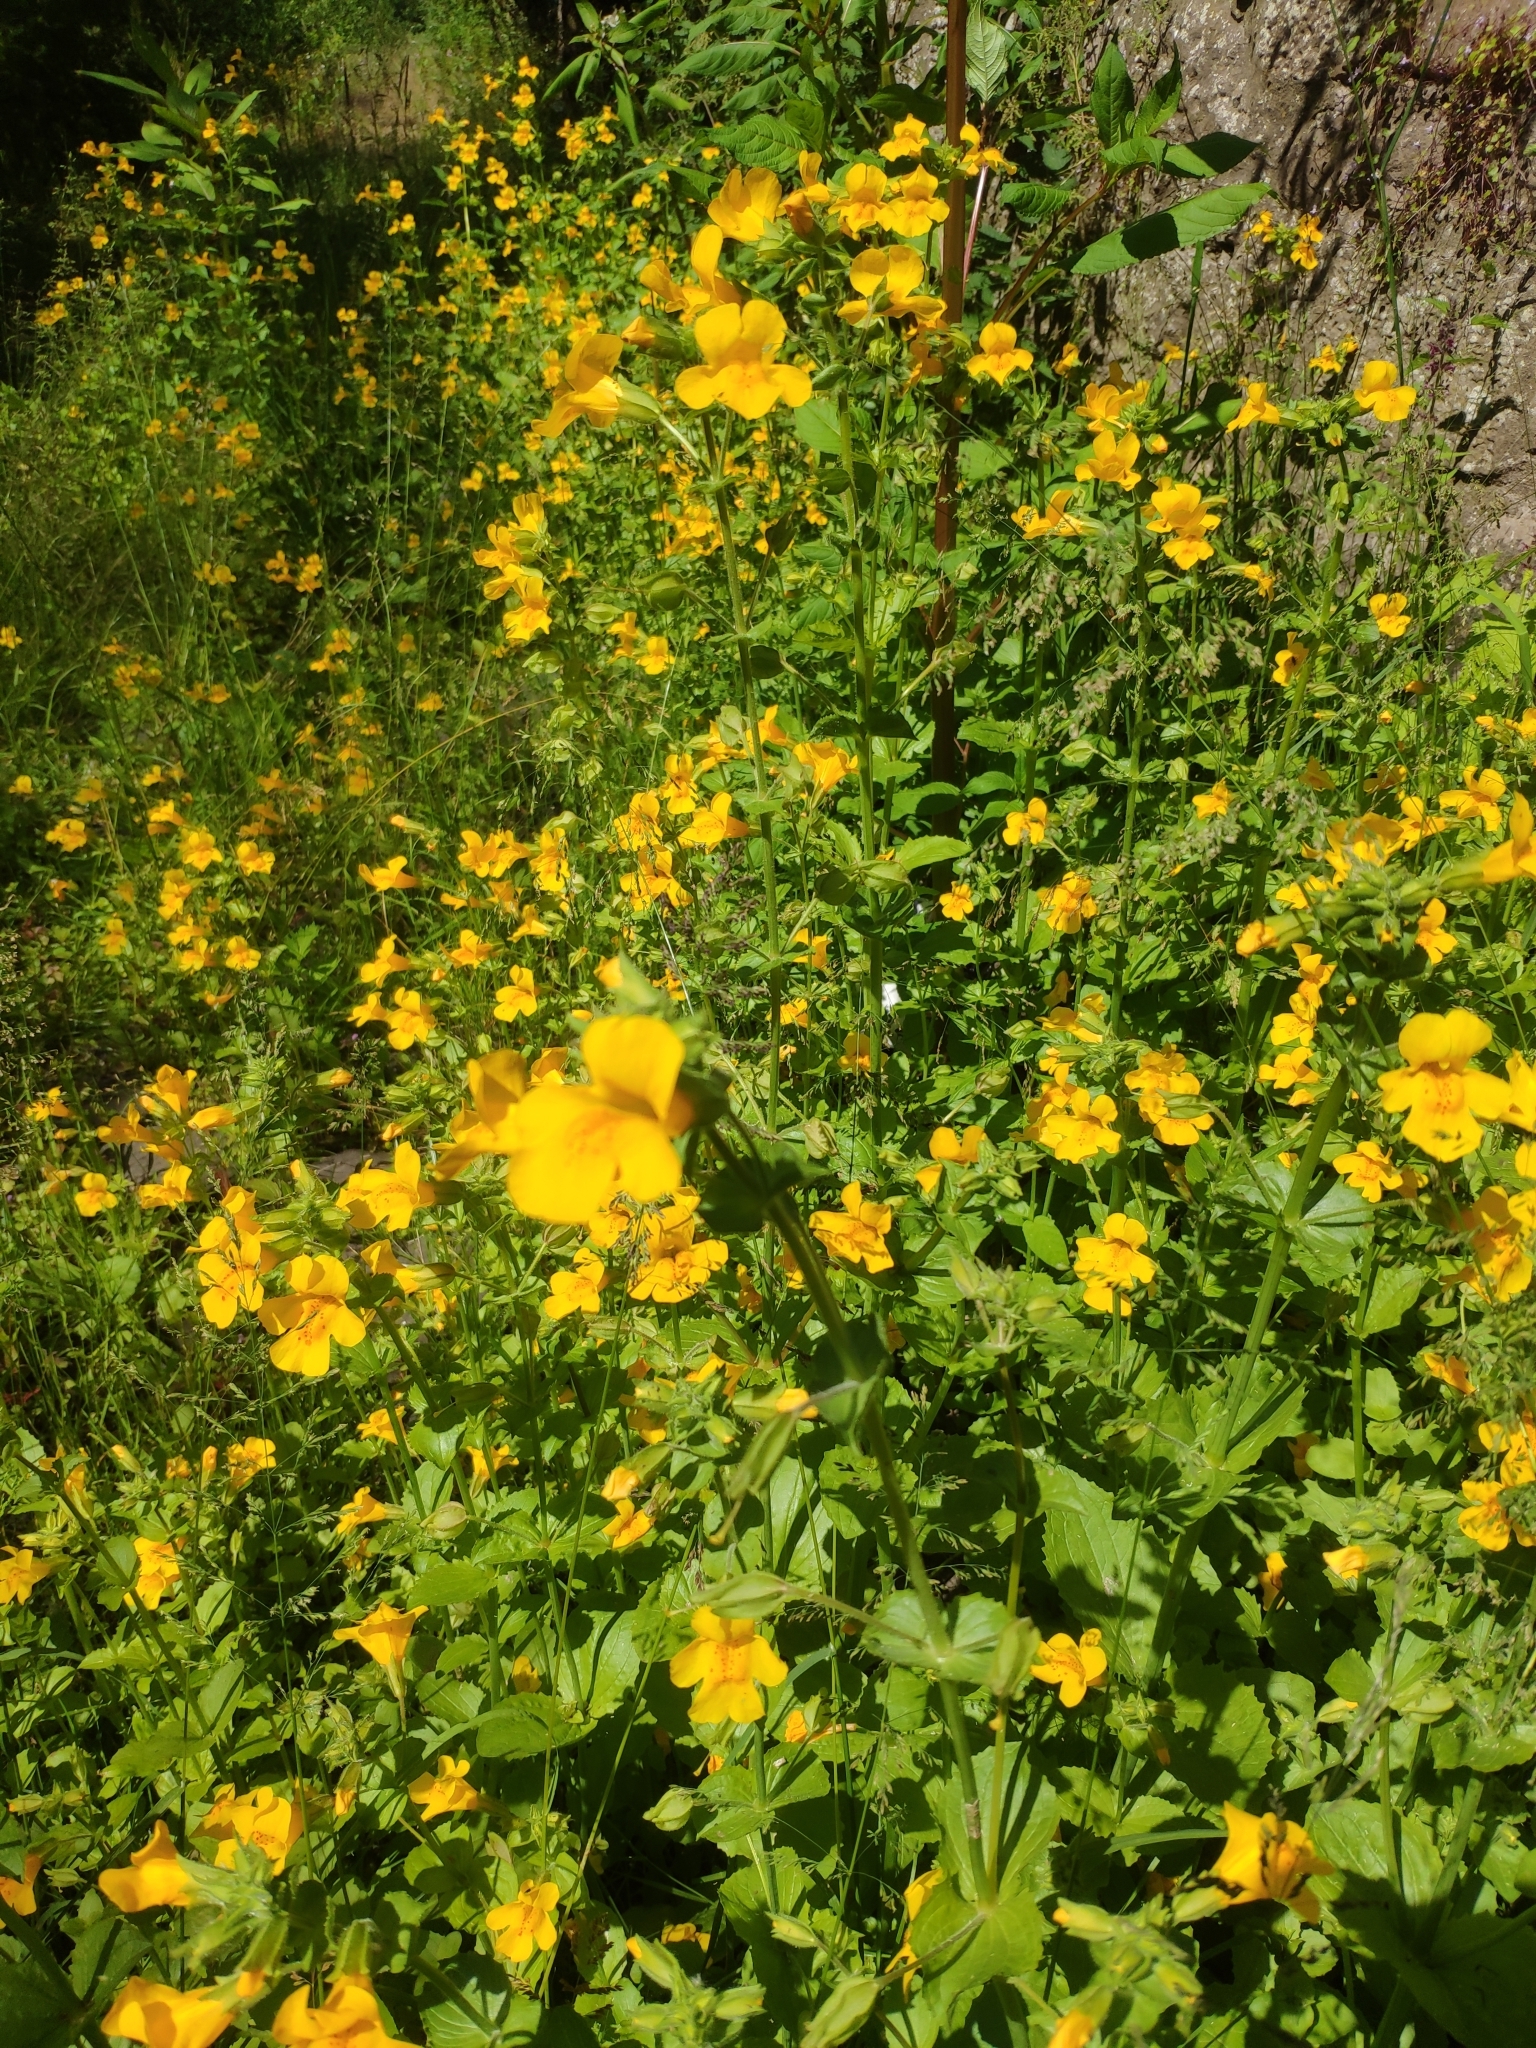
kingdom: Plantae
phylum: Tracheophyta
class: Magnoliopsida
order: Lamiales
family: Phrymaceae
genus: Erythranthe
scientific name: Erythranthe guttata
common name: Monkeyflower
